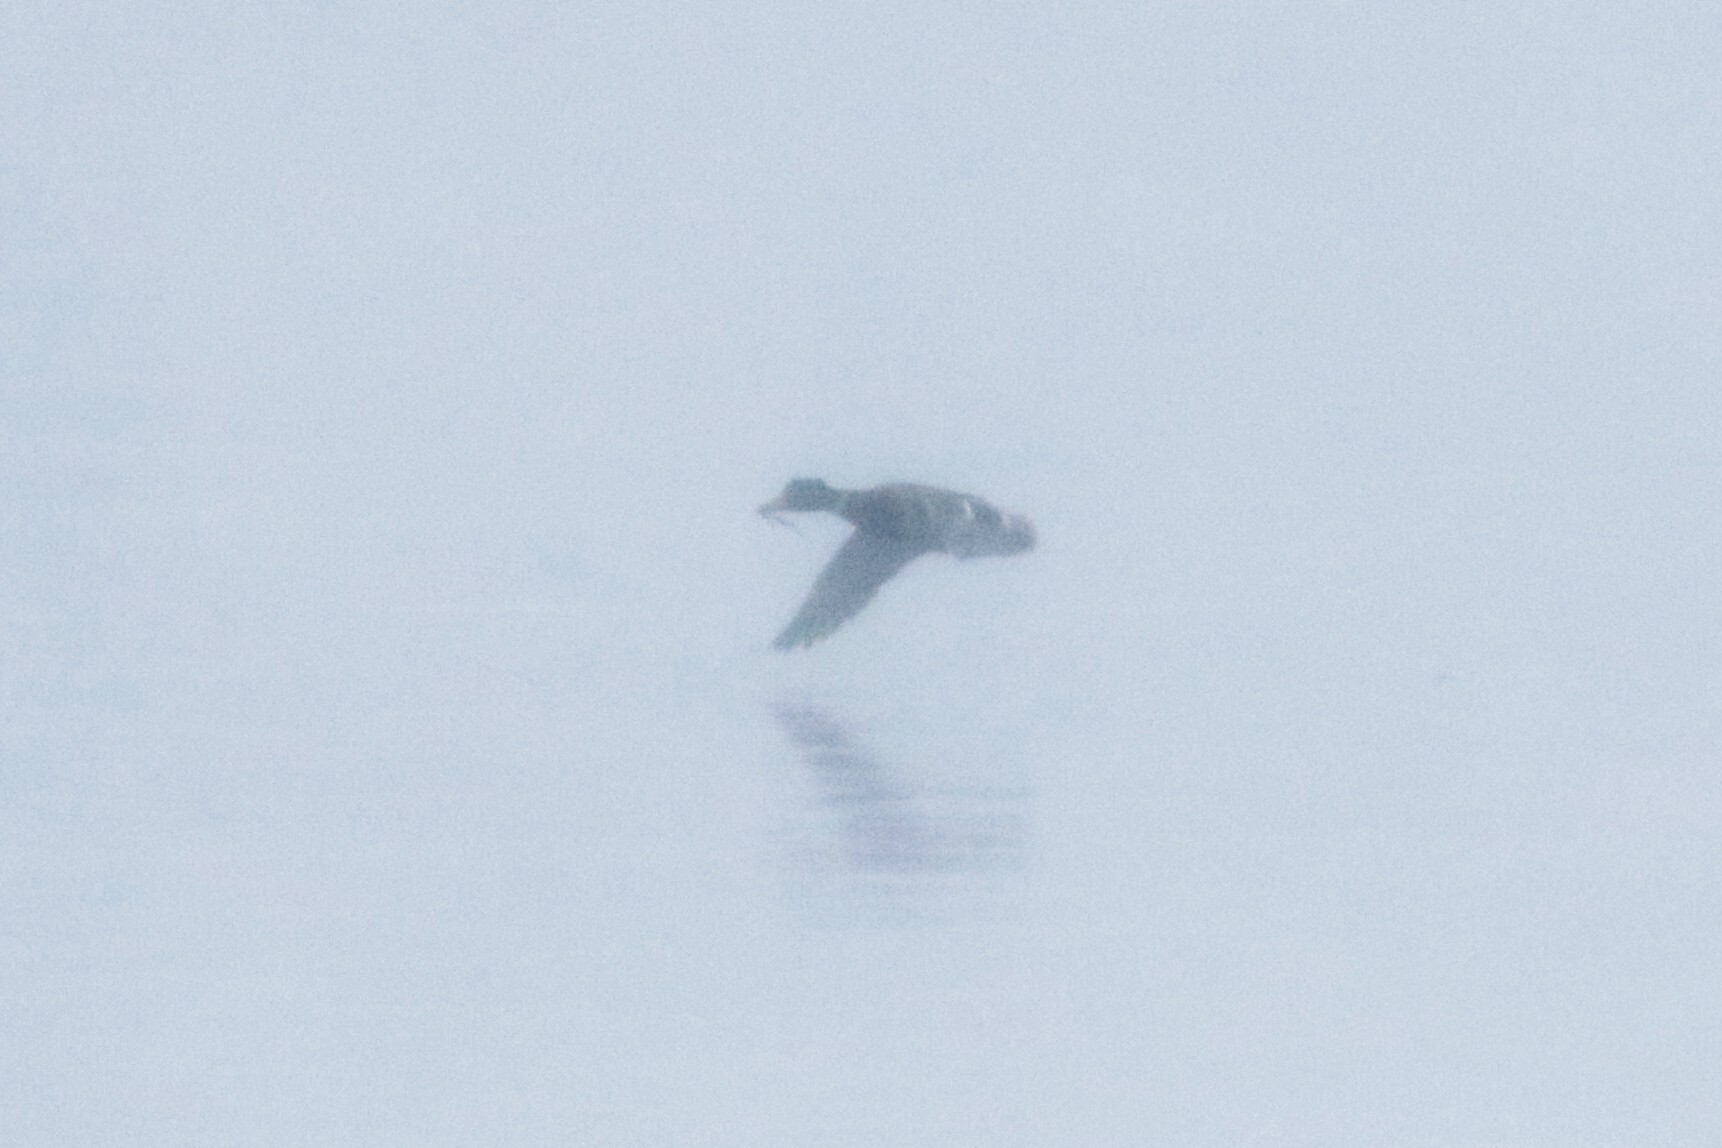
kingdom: Animalia
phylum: Chordata
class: Aves
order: Anseriformes
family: Anatidae
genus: Anas
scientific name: Anas platyrhynchos
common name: Mallard
